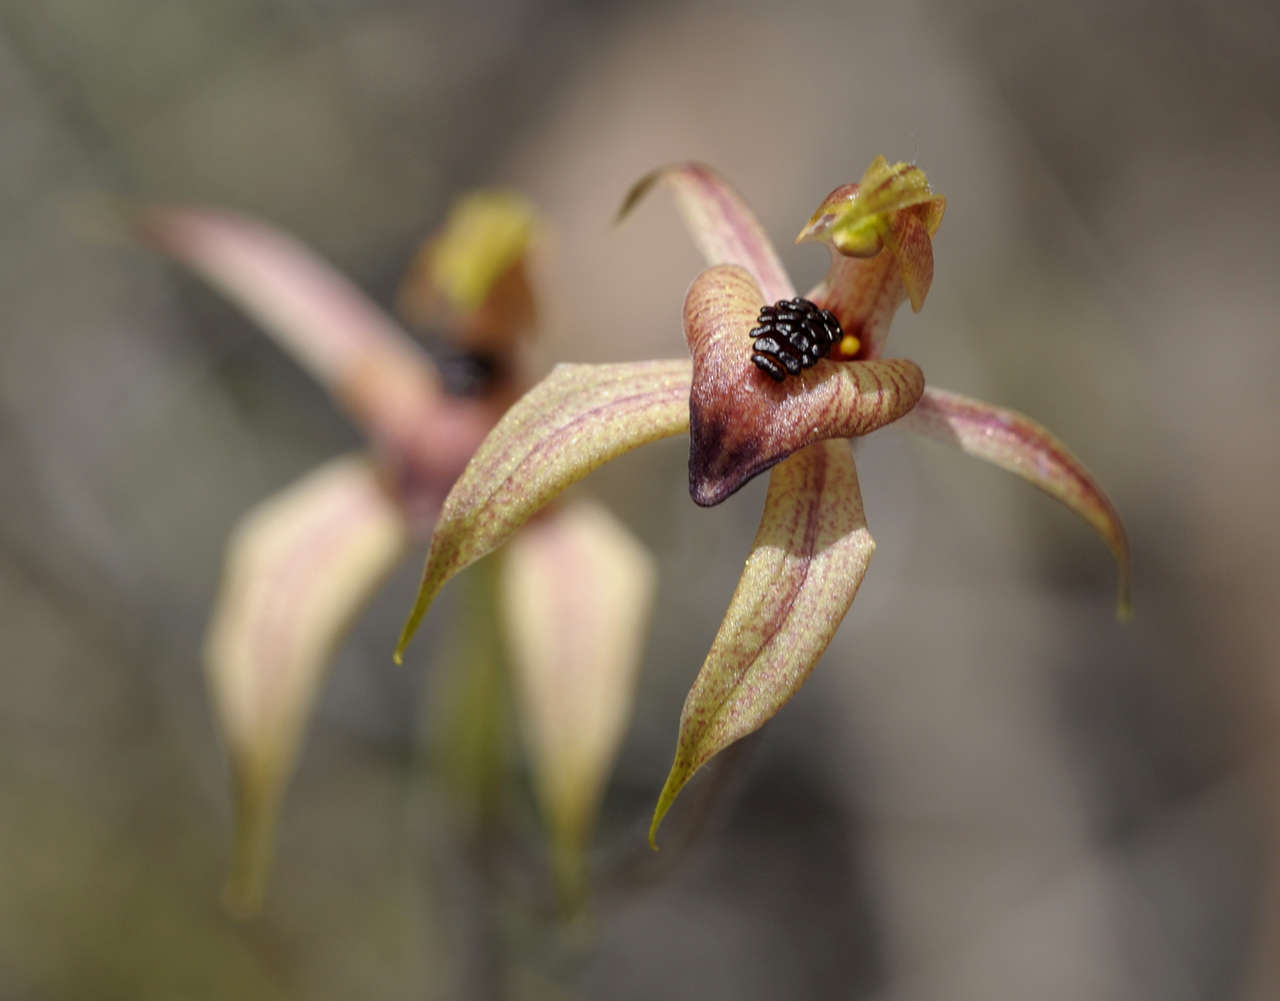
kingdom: Plantae
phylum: Tracheophyta
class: Liliopsida
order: Asparagales
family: Orchidaceae
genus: Caladenia
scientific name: Caladenia cardiochila
